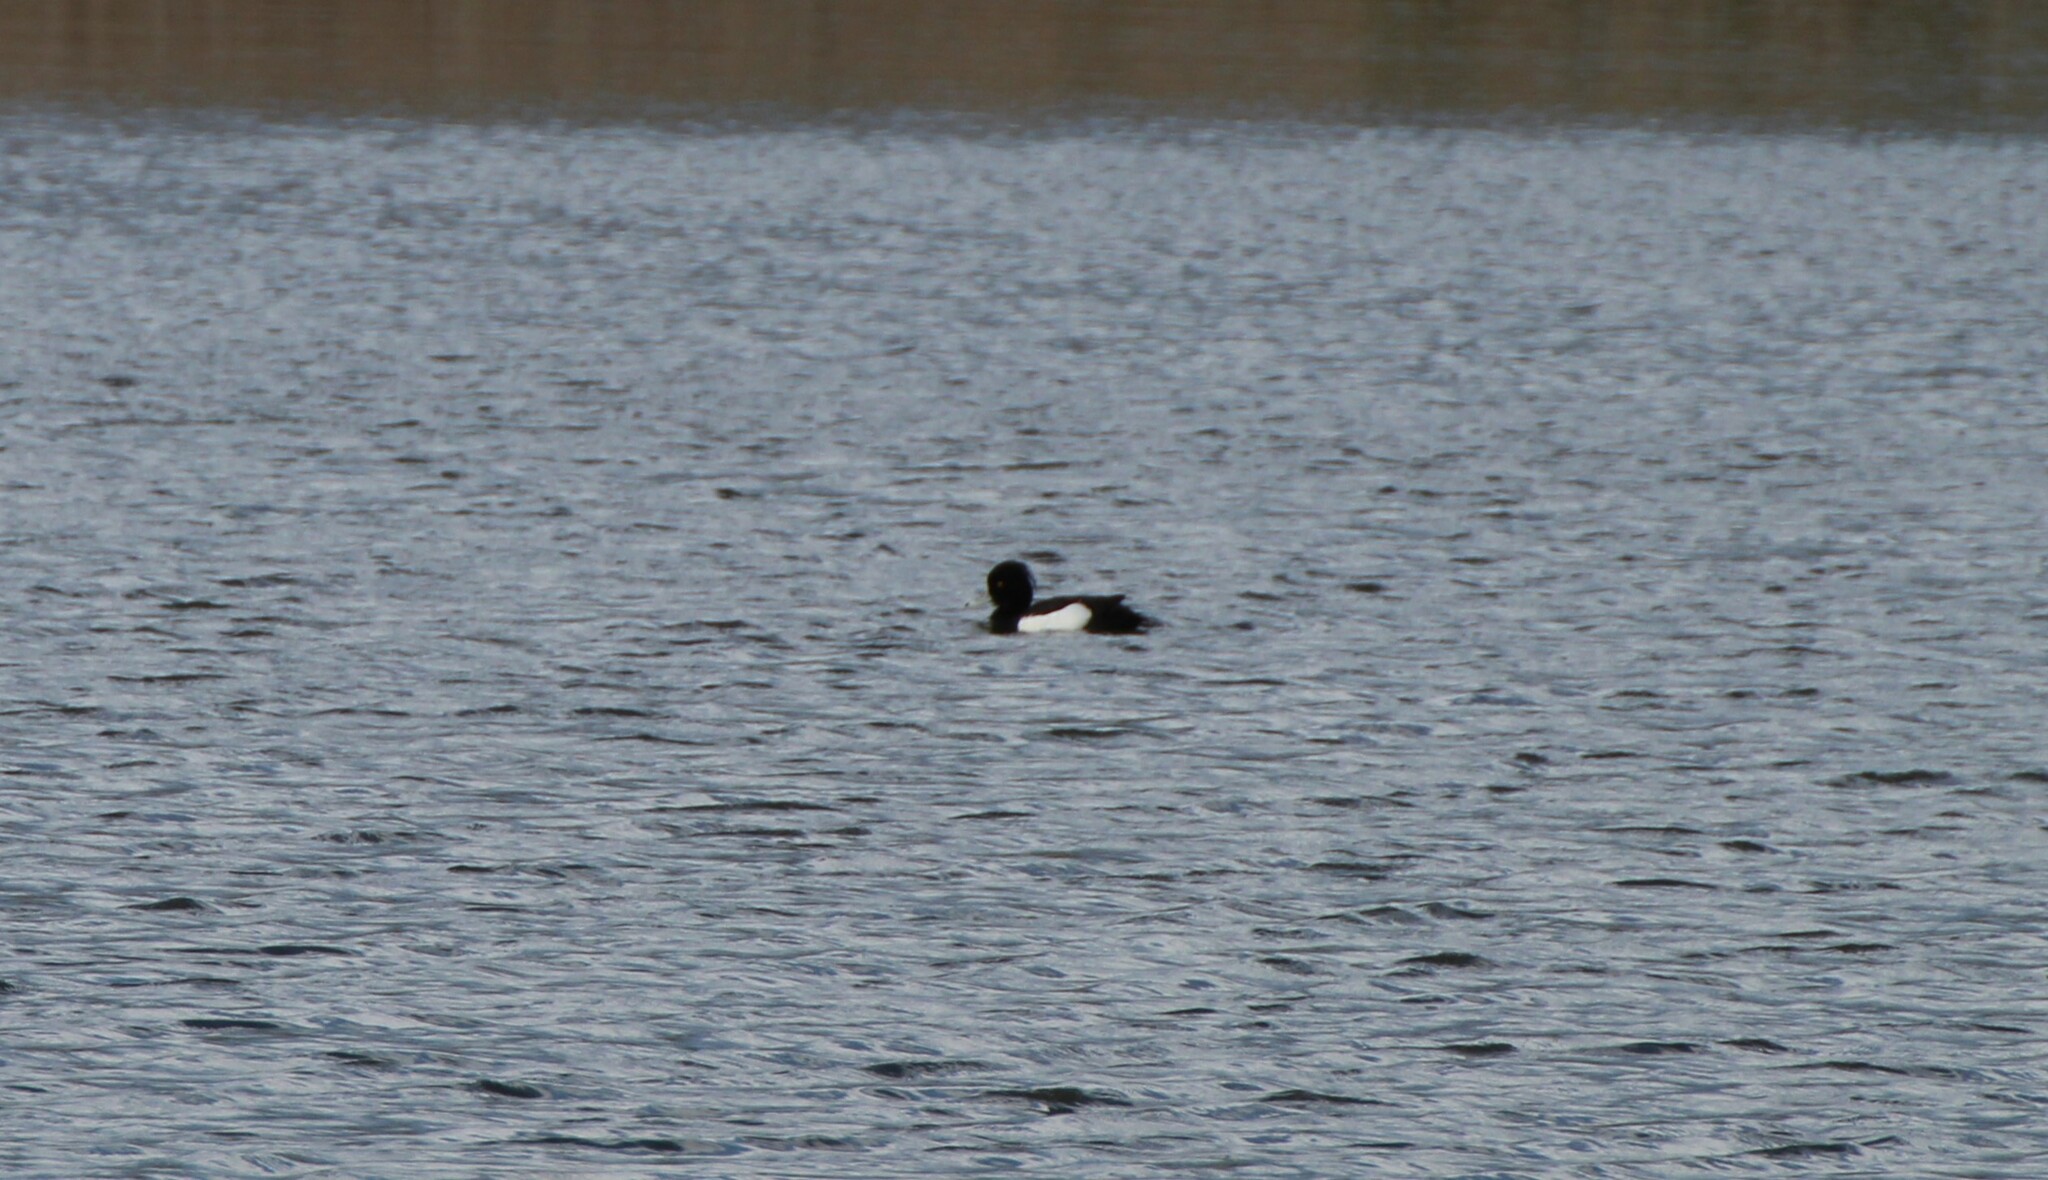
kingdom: Animalia
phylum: Chordata
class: Aves
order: Anseriformes
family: Anatidae
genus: Aythya
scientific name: Aythya fuligula
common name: Tufted duck
